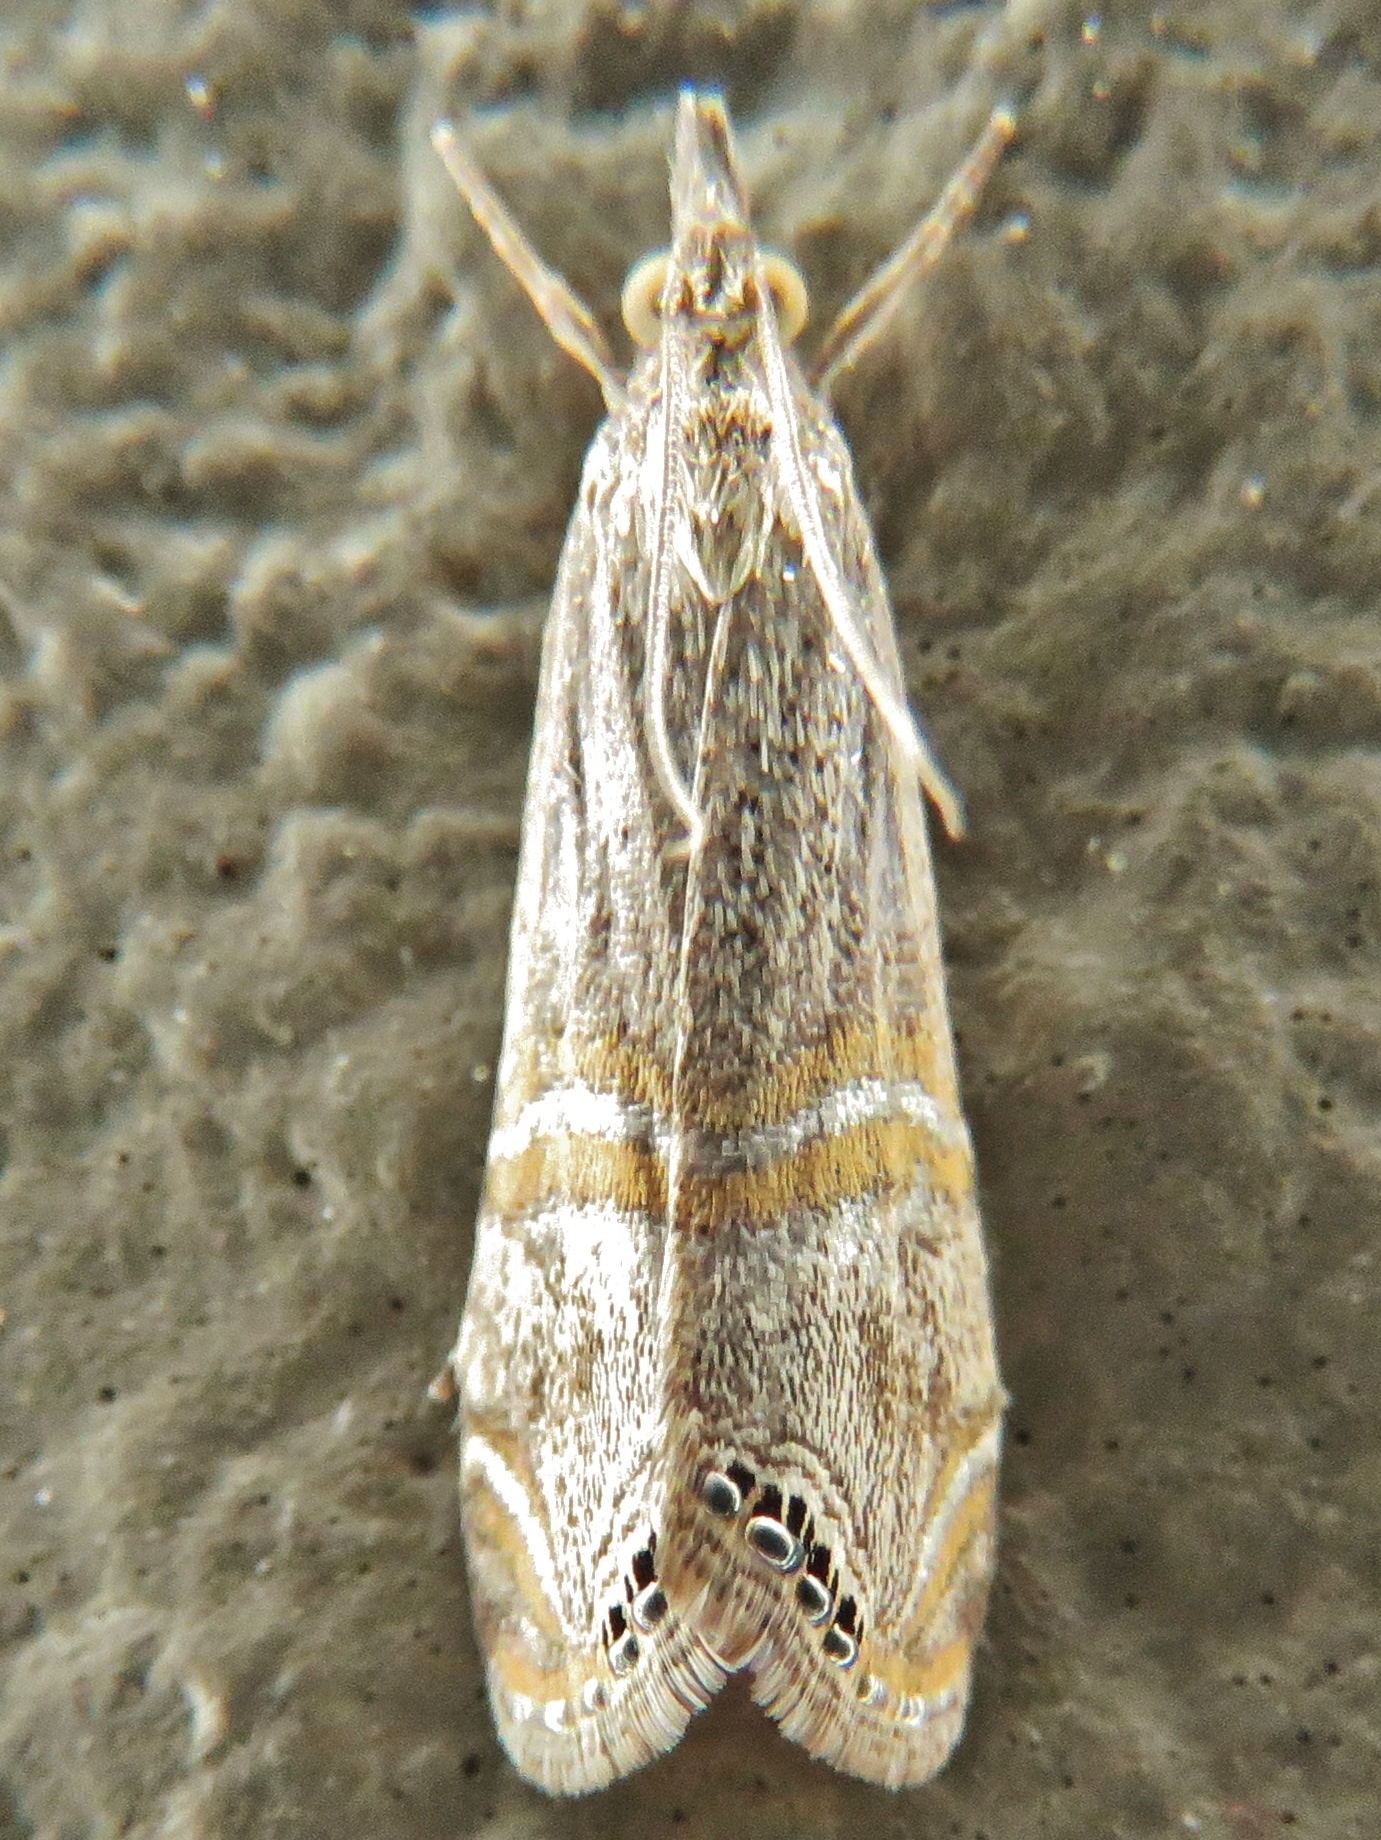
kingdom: Animalia
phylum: Arthropoda
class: Insecta
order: Lepidoptera
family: Crambidae
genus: Euchromius
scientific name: Euchromius ocellea
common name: Necklace veneer moth
